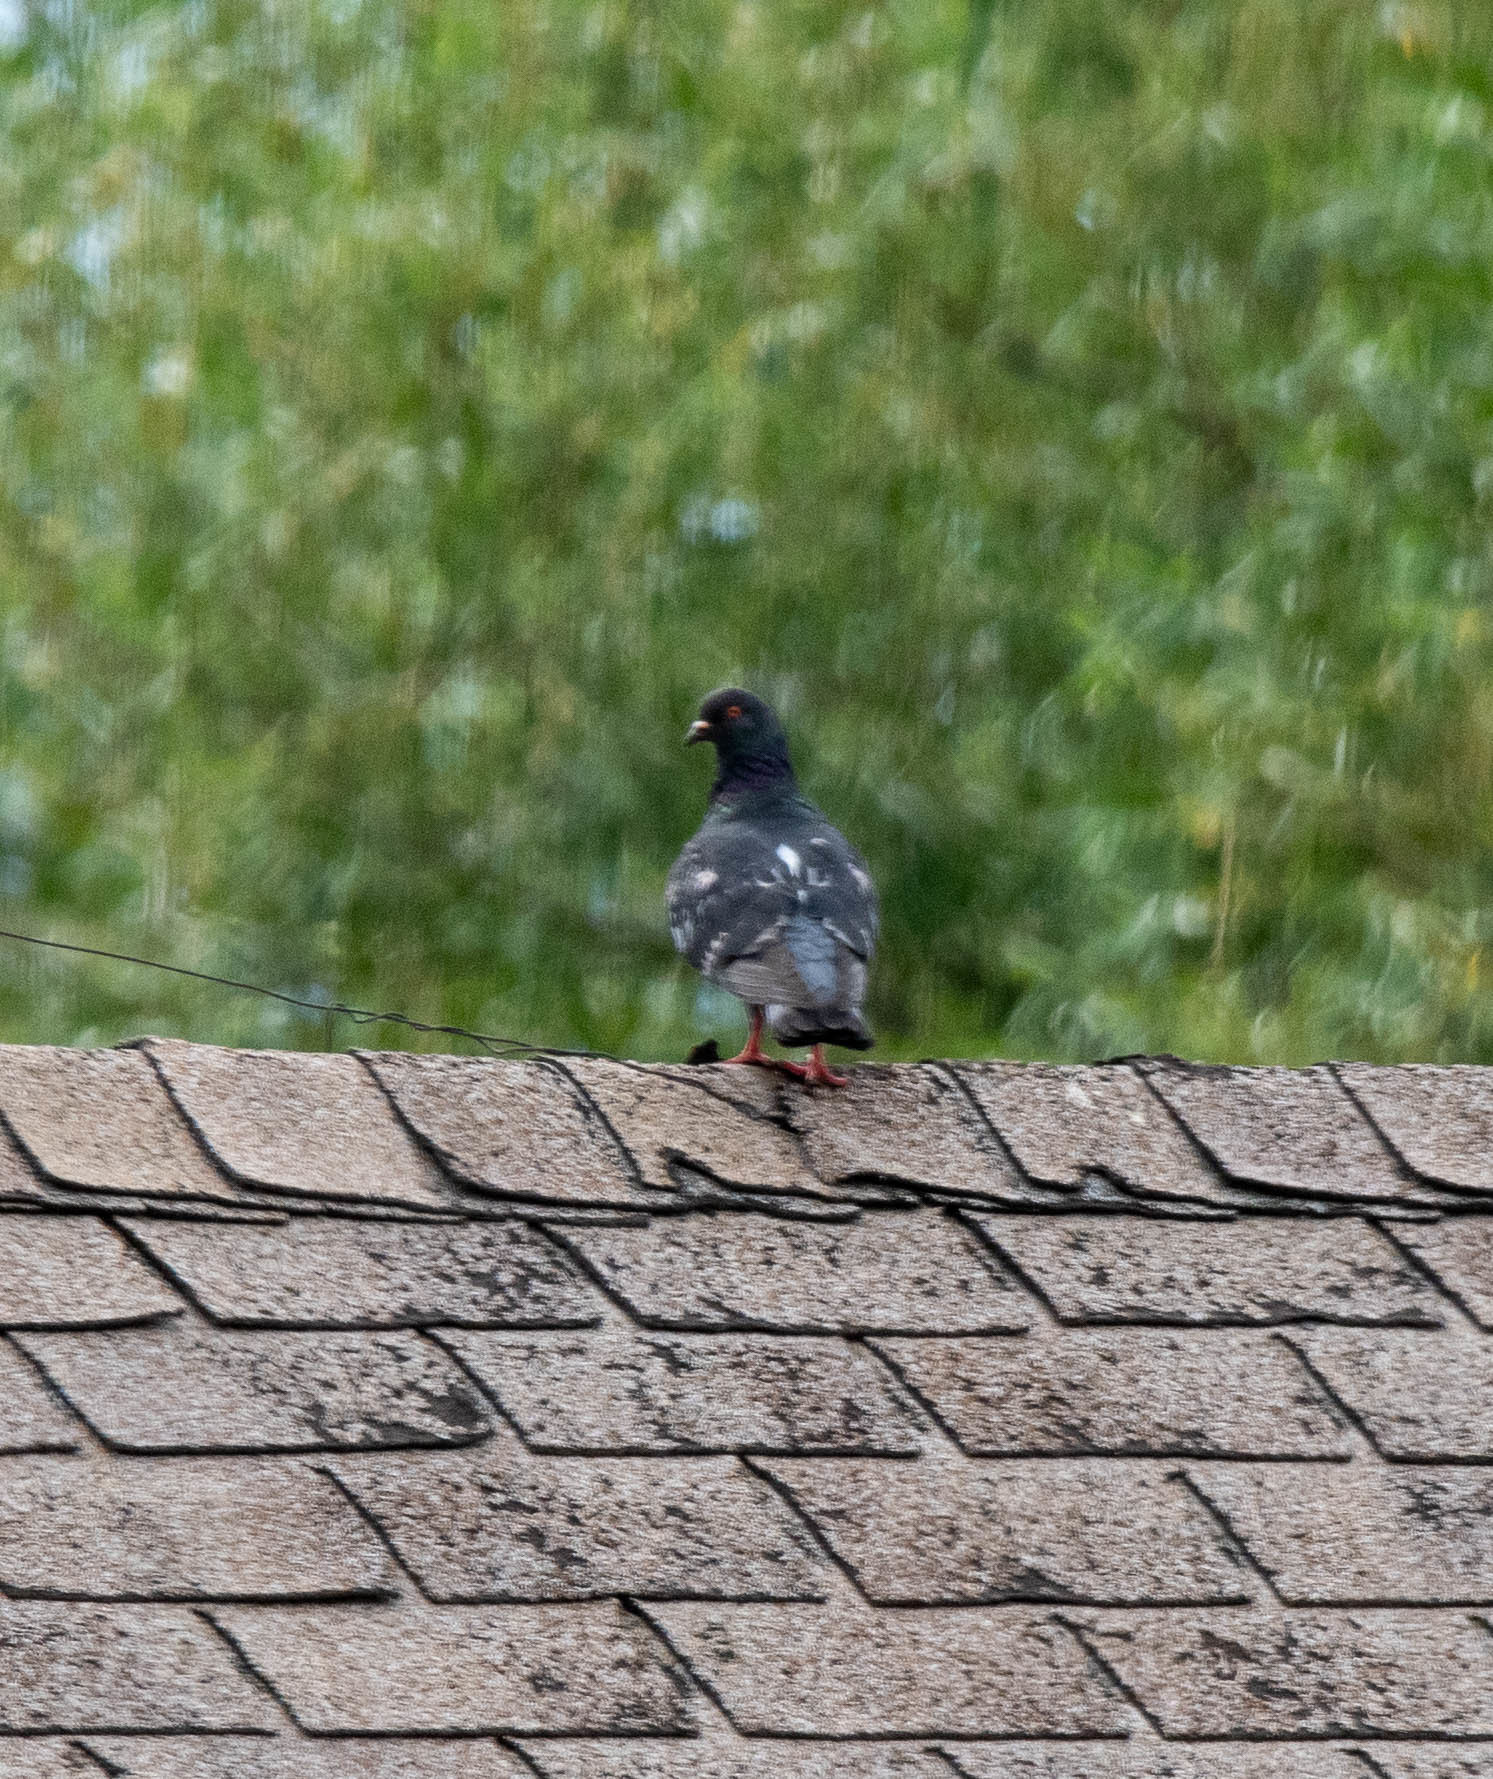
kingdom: Animalia
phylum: Chordata
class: Aves
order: Columbiformes
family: Columbidae
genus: Columba
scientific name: Columba livia
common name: Rock pigeon
